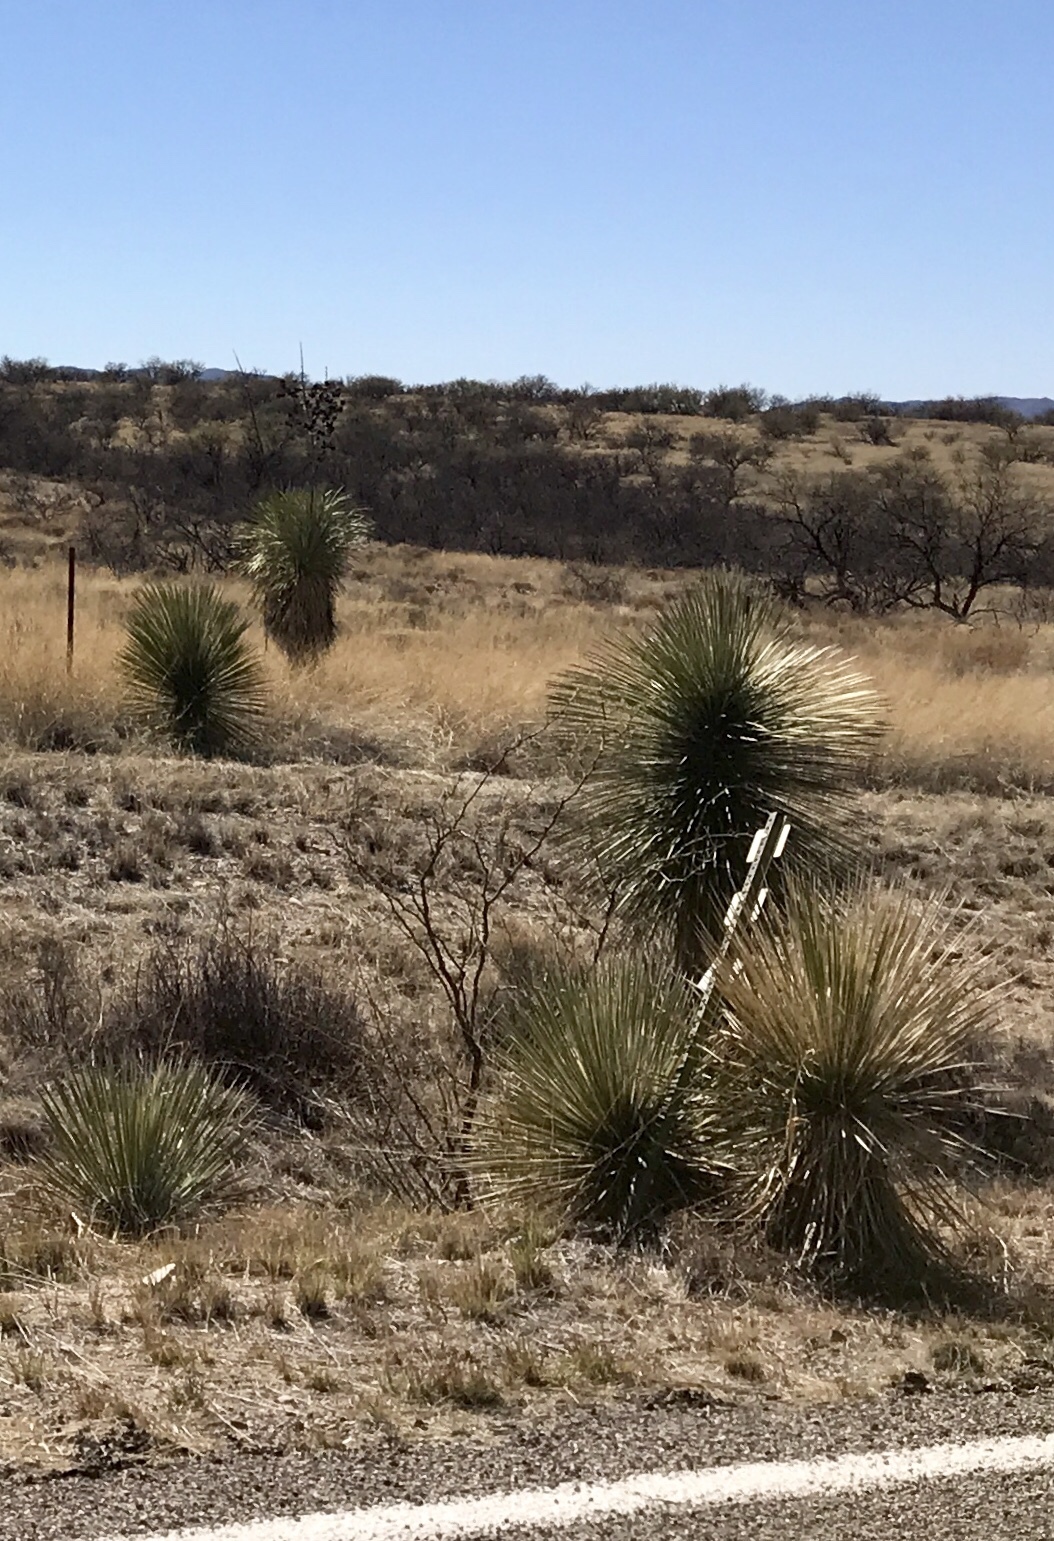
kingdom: Plantae
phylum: Tracheophyta
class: Liliopsida
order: Asparagales
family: Asparagaceae
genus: Yucca
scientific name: Yucca elata
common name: Palmella
